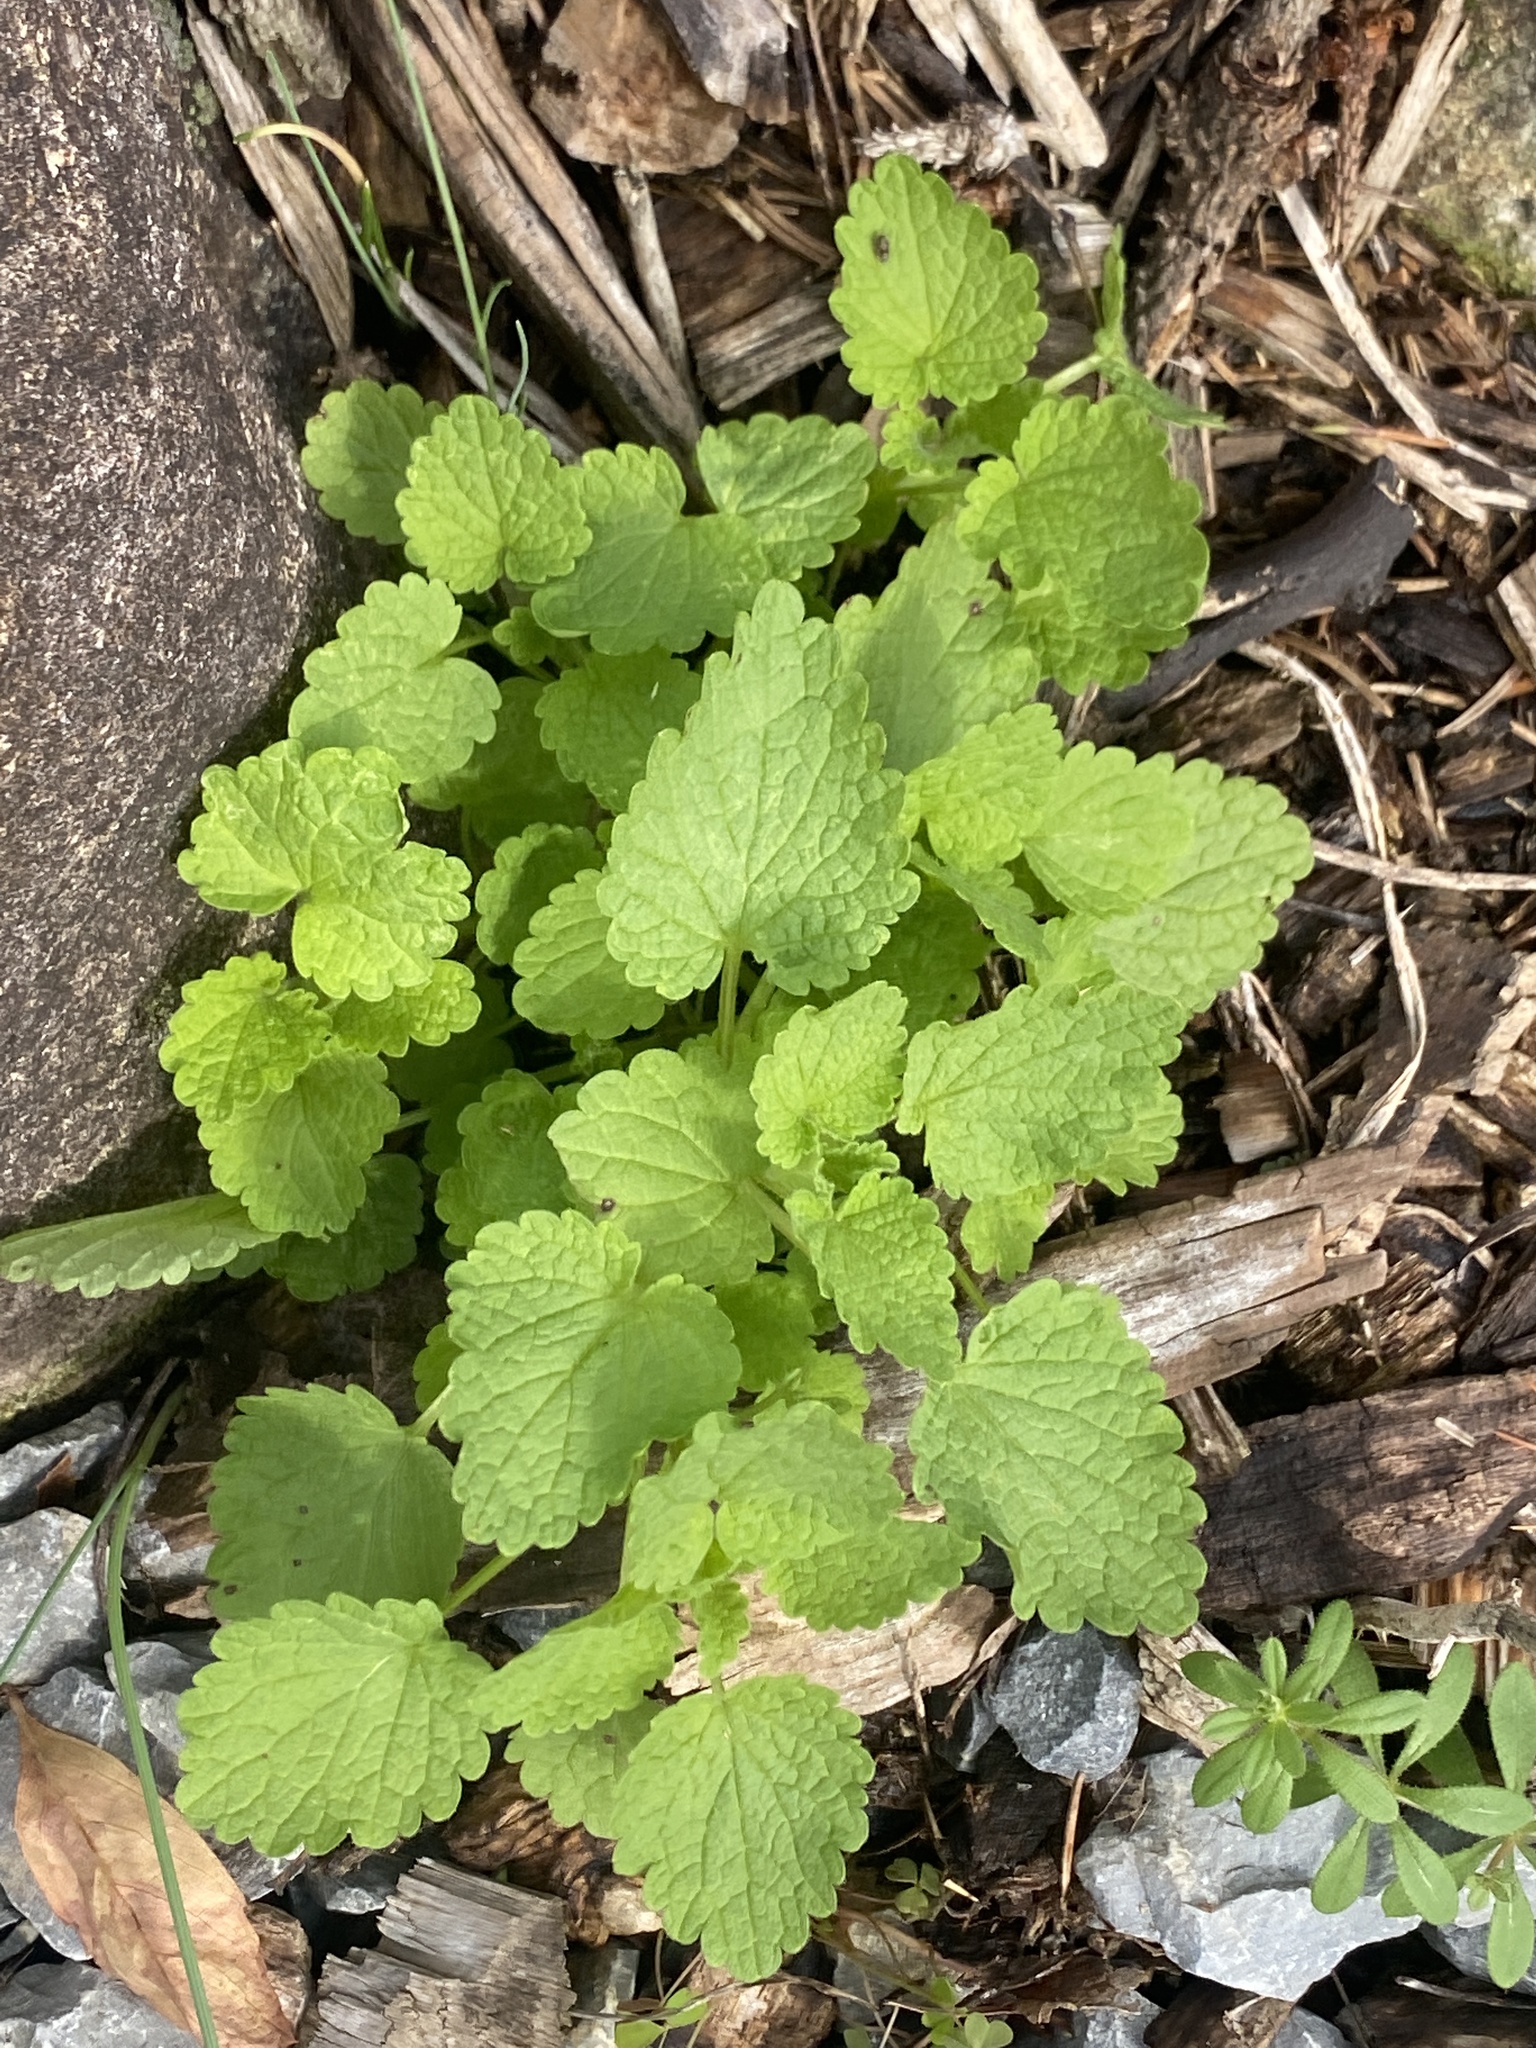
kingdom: Plantae
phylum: Tracheophyta
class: Magnoliopsida
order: Lamiales
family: Lamiaceae
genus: Lamium
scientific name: Lamium purpureum
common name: Red dead-nettle
